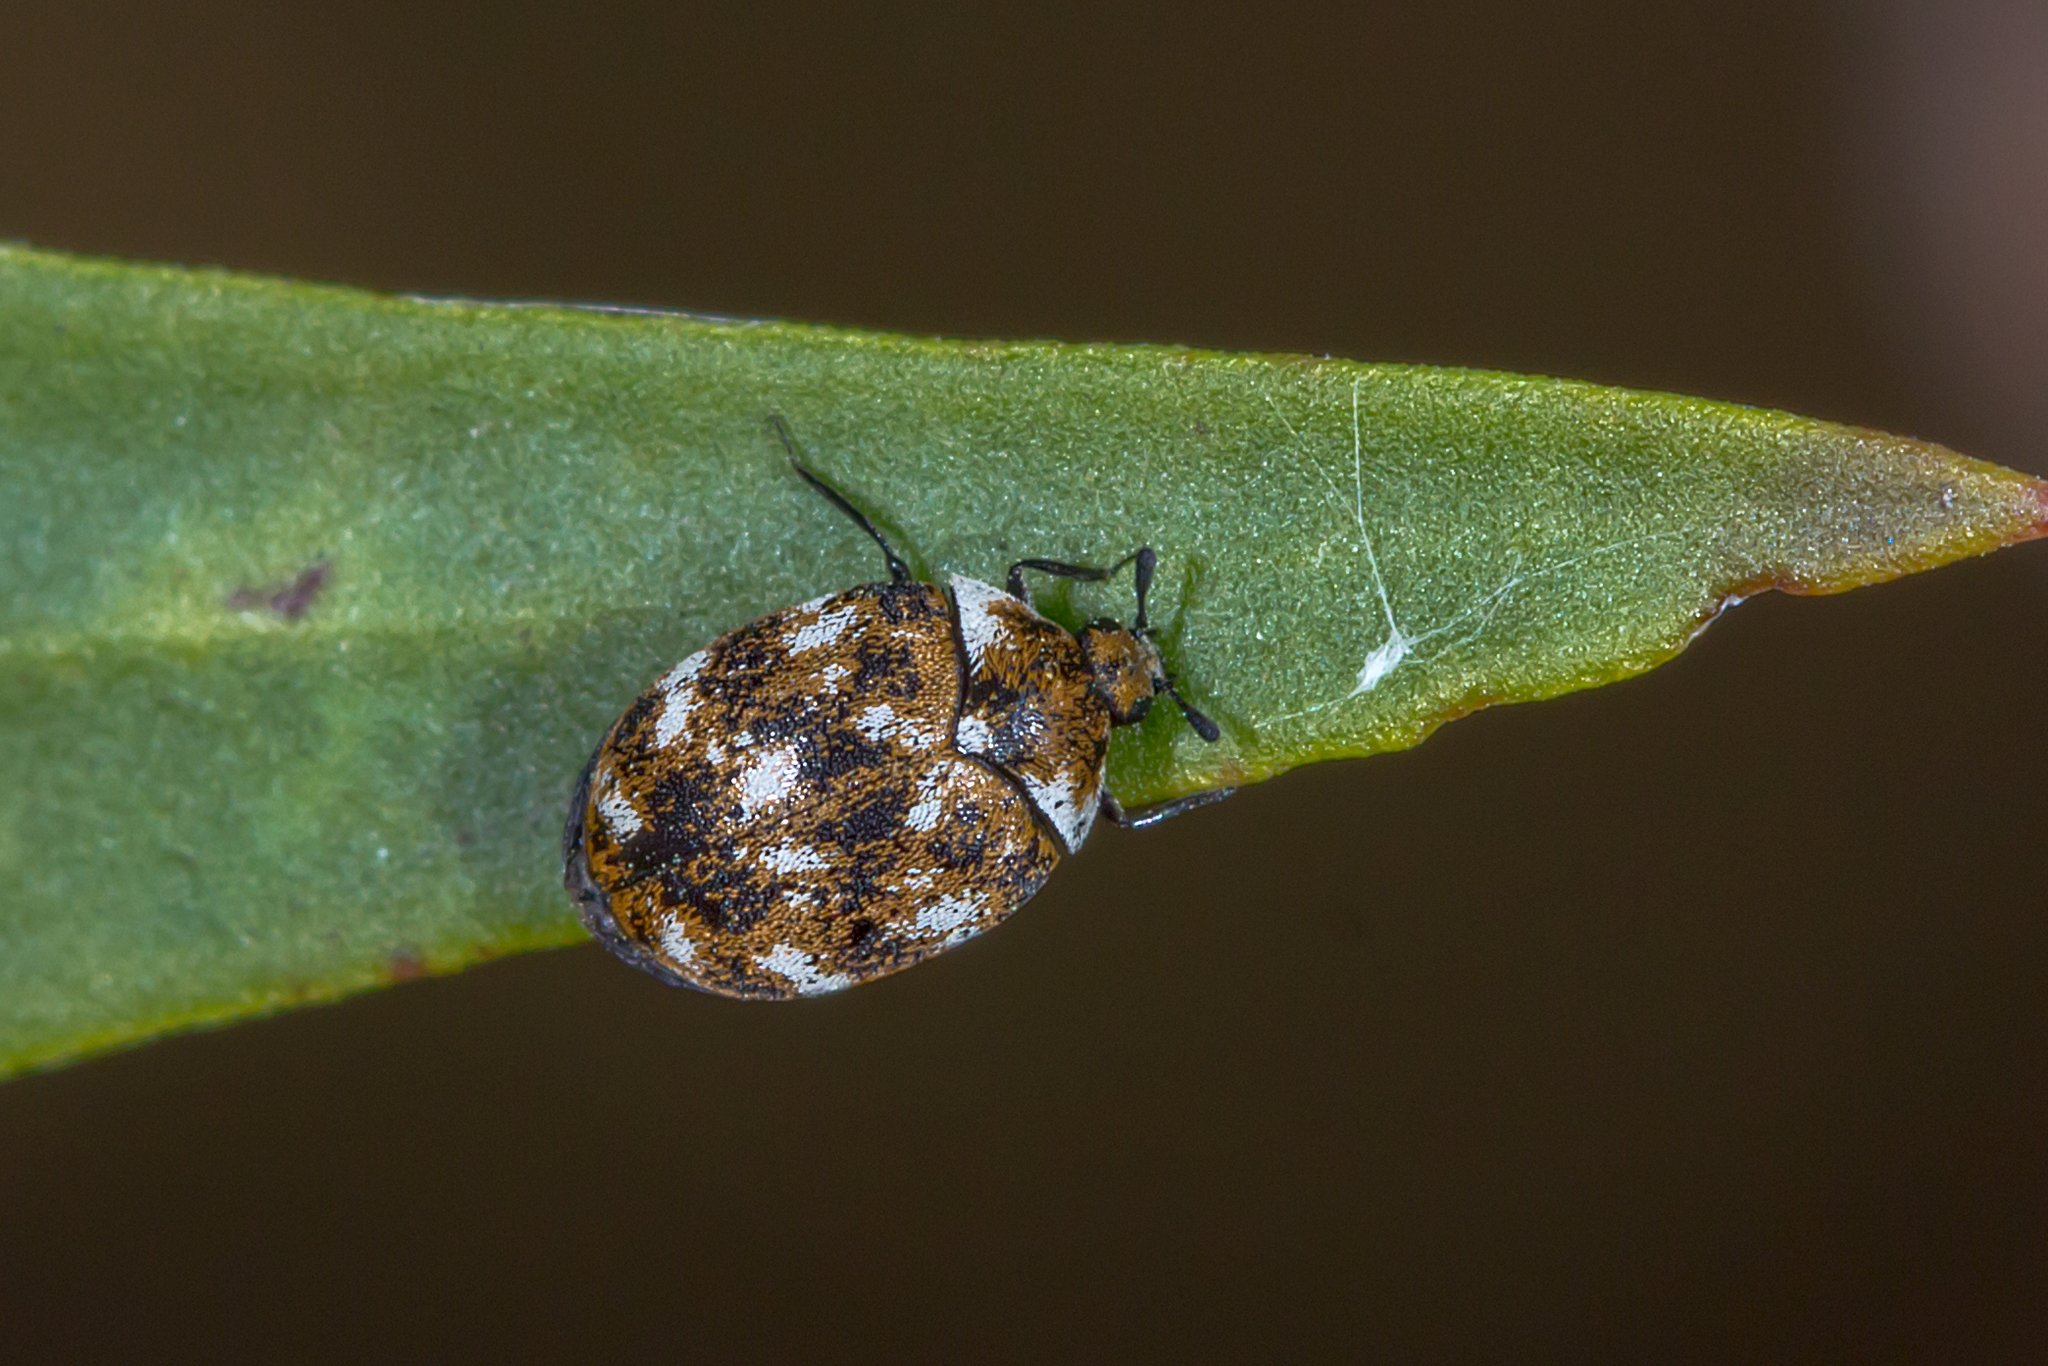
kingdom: Animalia
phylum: Arthropoda
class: Insecta
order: Coleoptera
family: Dermestidae
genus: Anthrenus
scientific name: Anthrenus verbasci
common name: Varied carpet beetle
